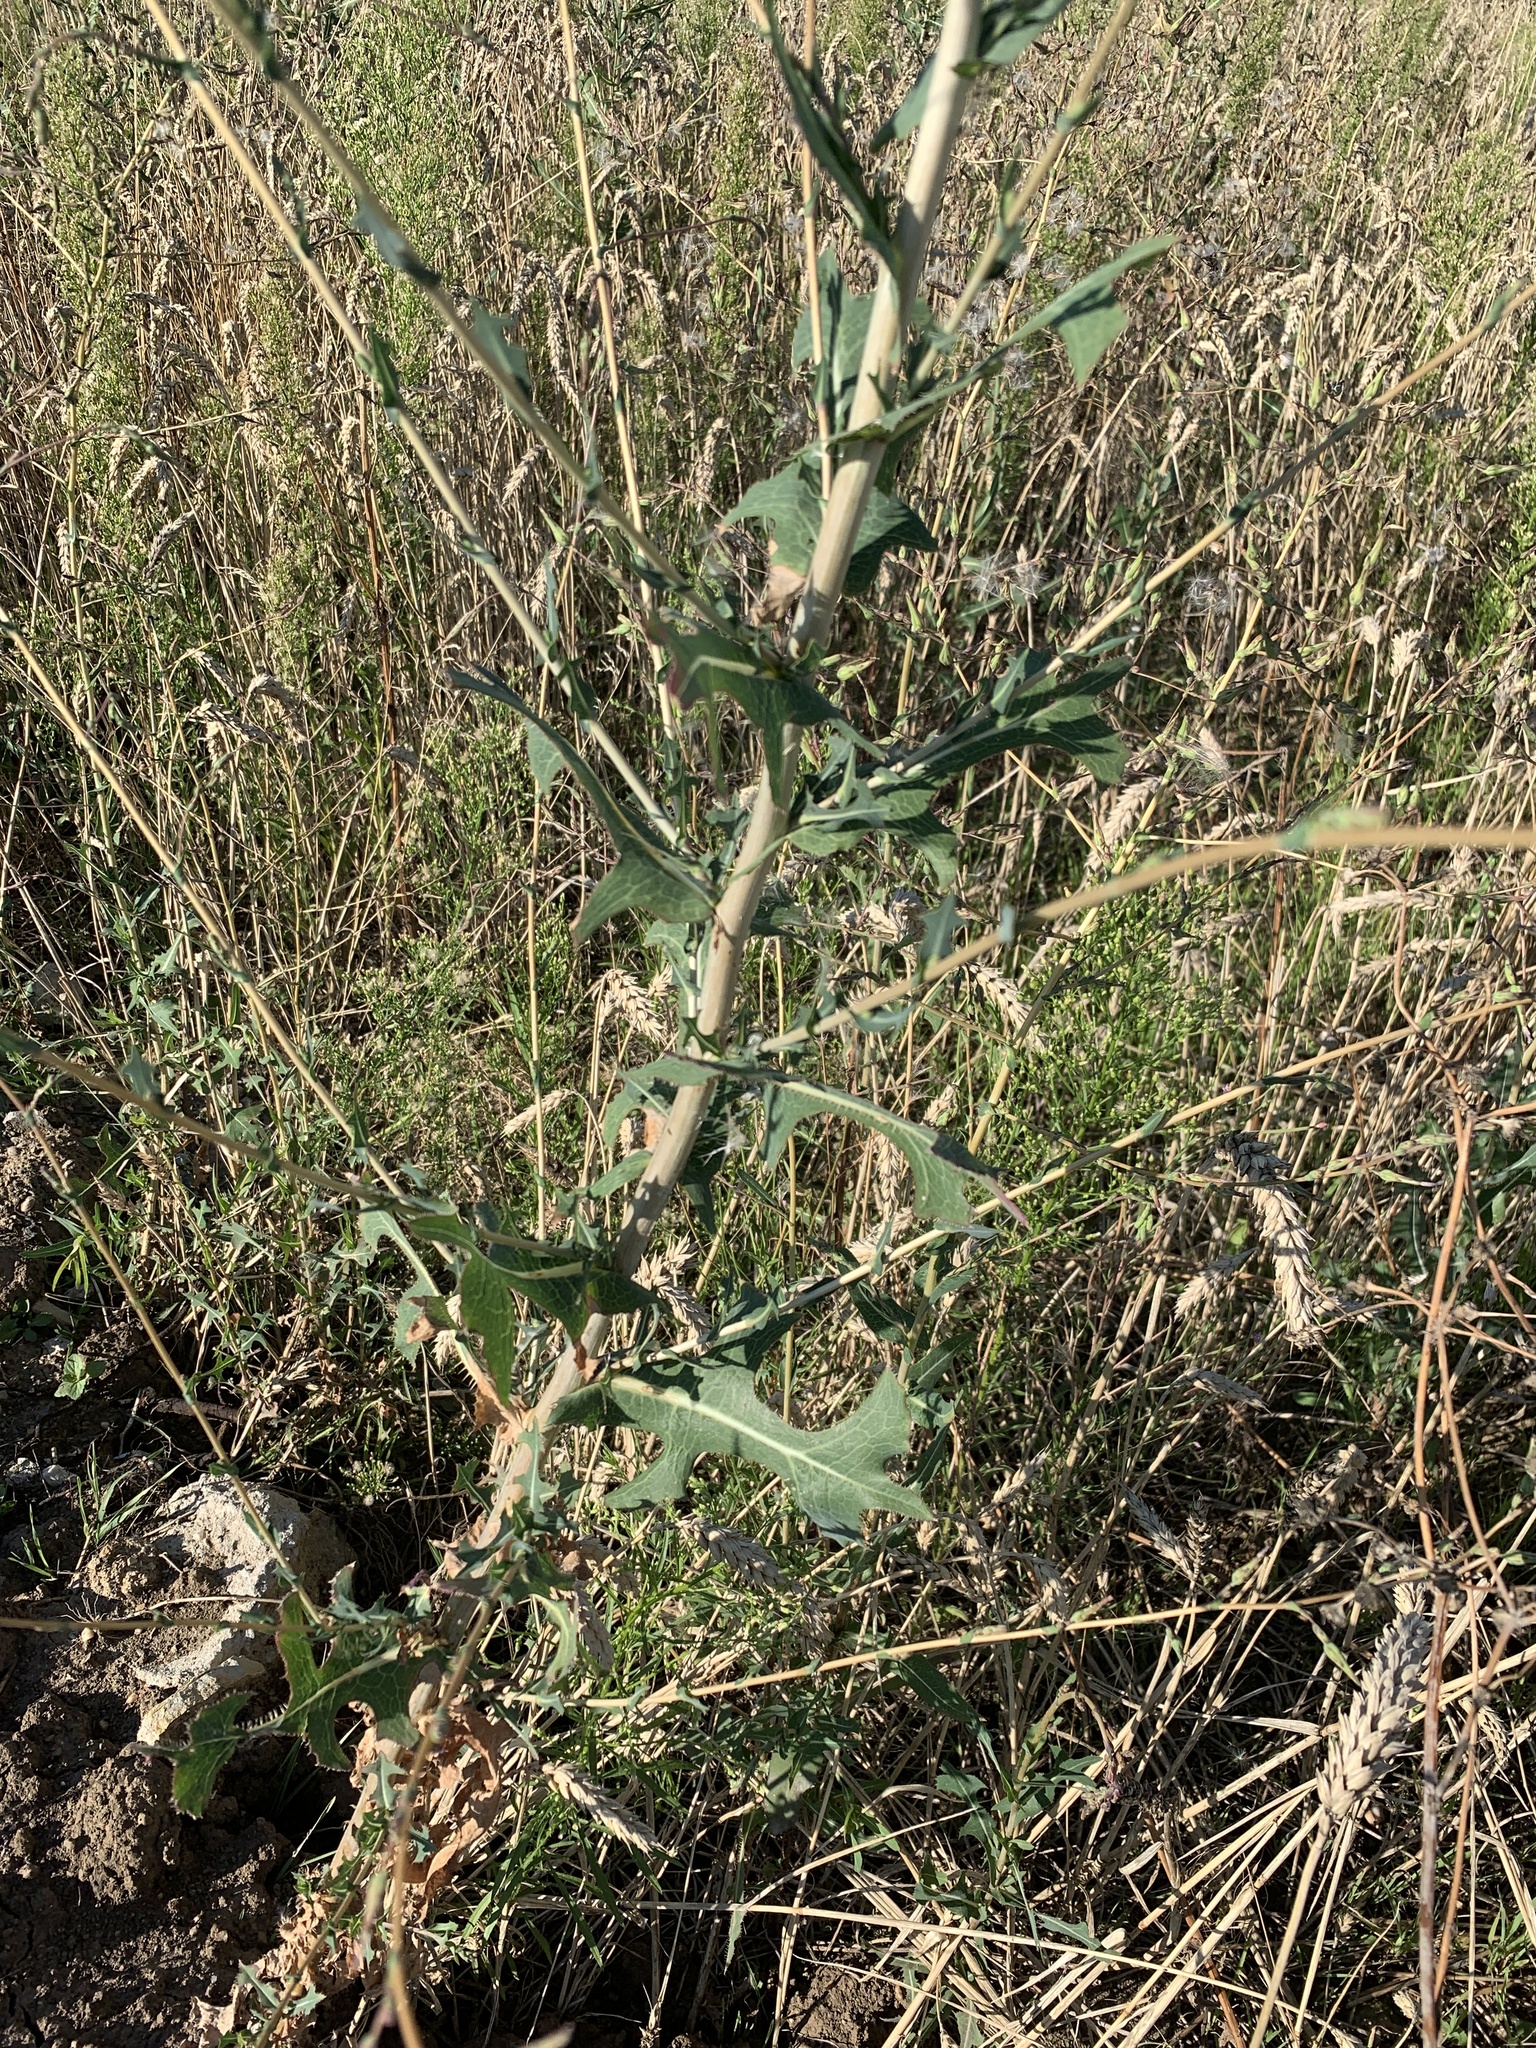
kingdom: Plantae
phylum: Tracheophyta
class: Magnoliopsida
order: Asterales
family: Asteraceae
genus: Lactuca
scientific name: Lactuca serriola
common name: Prickly lettuce
